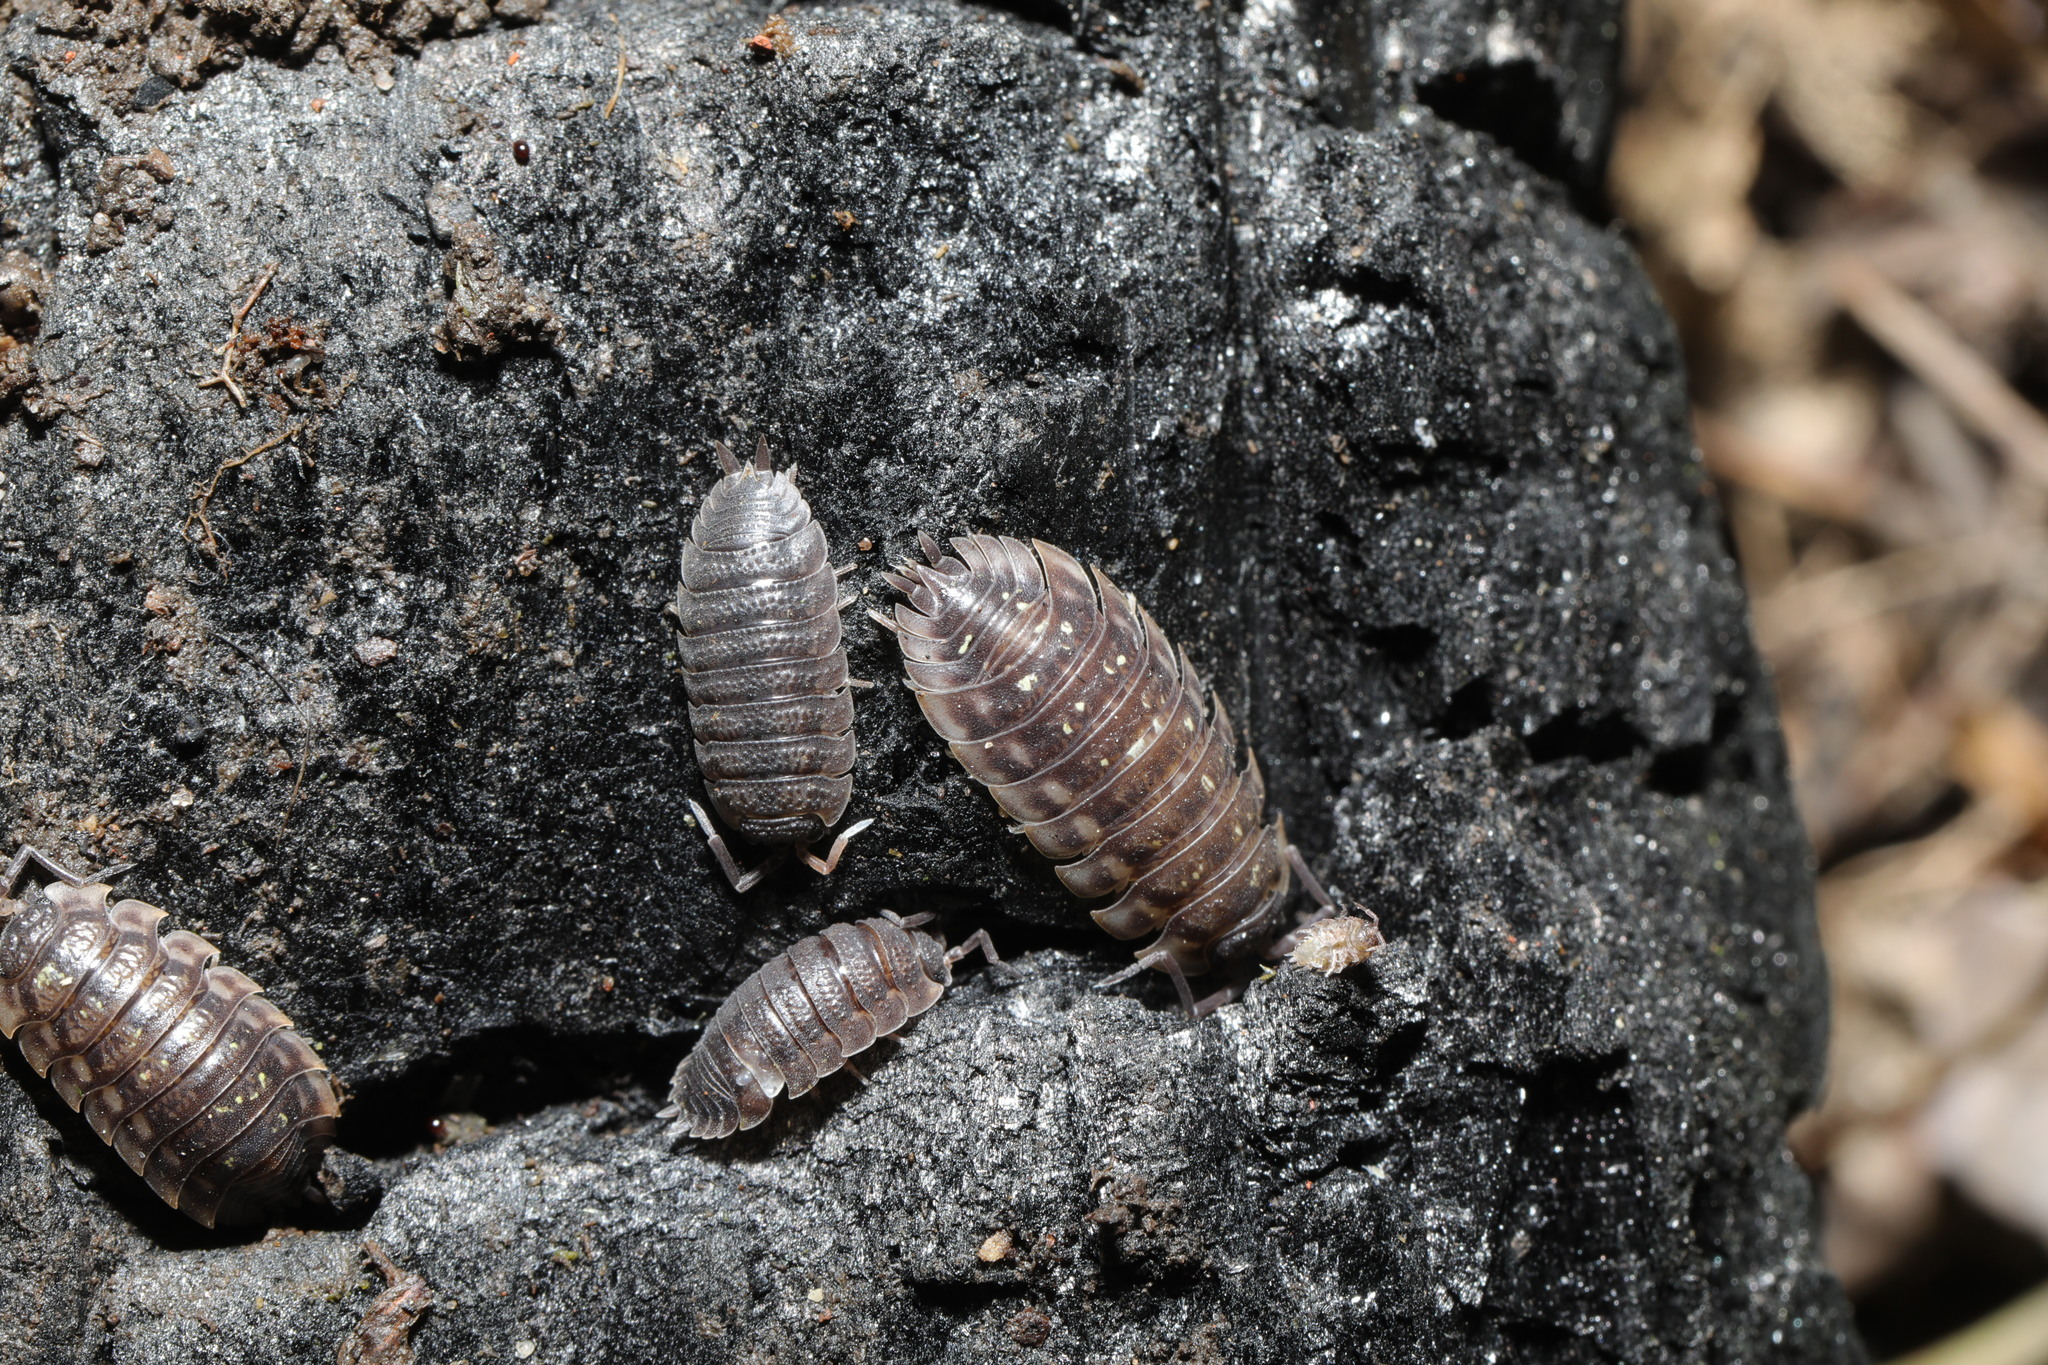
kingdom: Animalia
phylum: Arthropoda
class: Malacostraca
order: Isopoda
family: Oniscidae
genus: Oniscus
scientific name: Oniscus asellus
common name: Common shiny woodlouse
